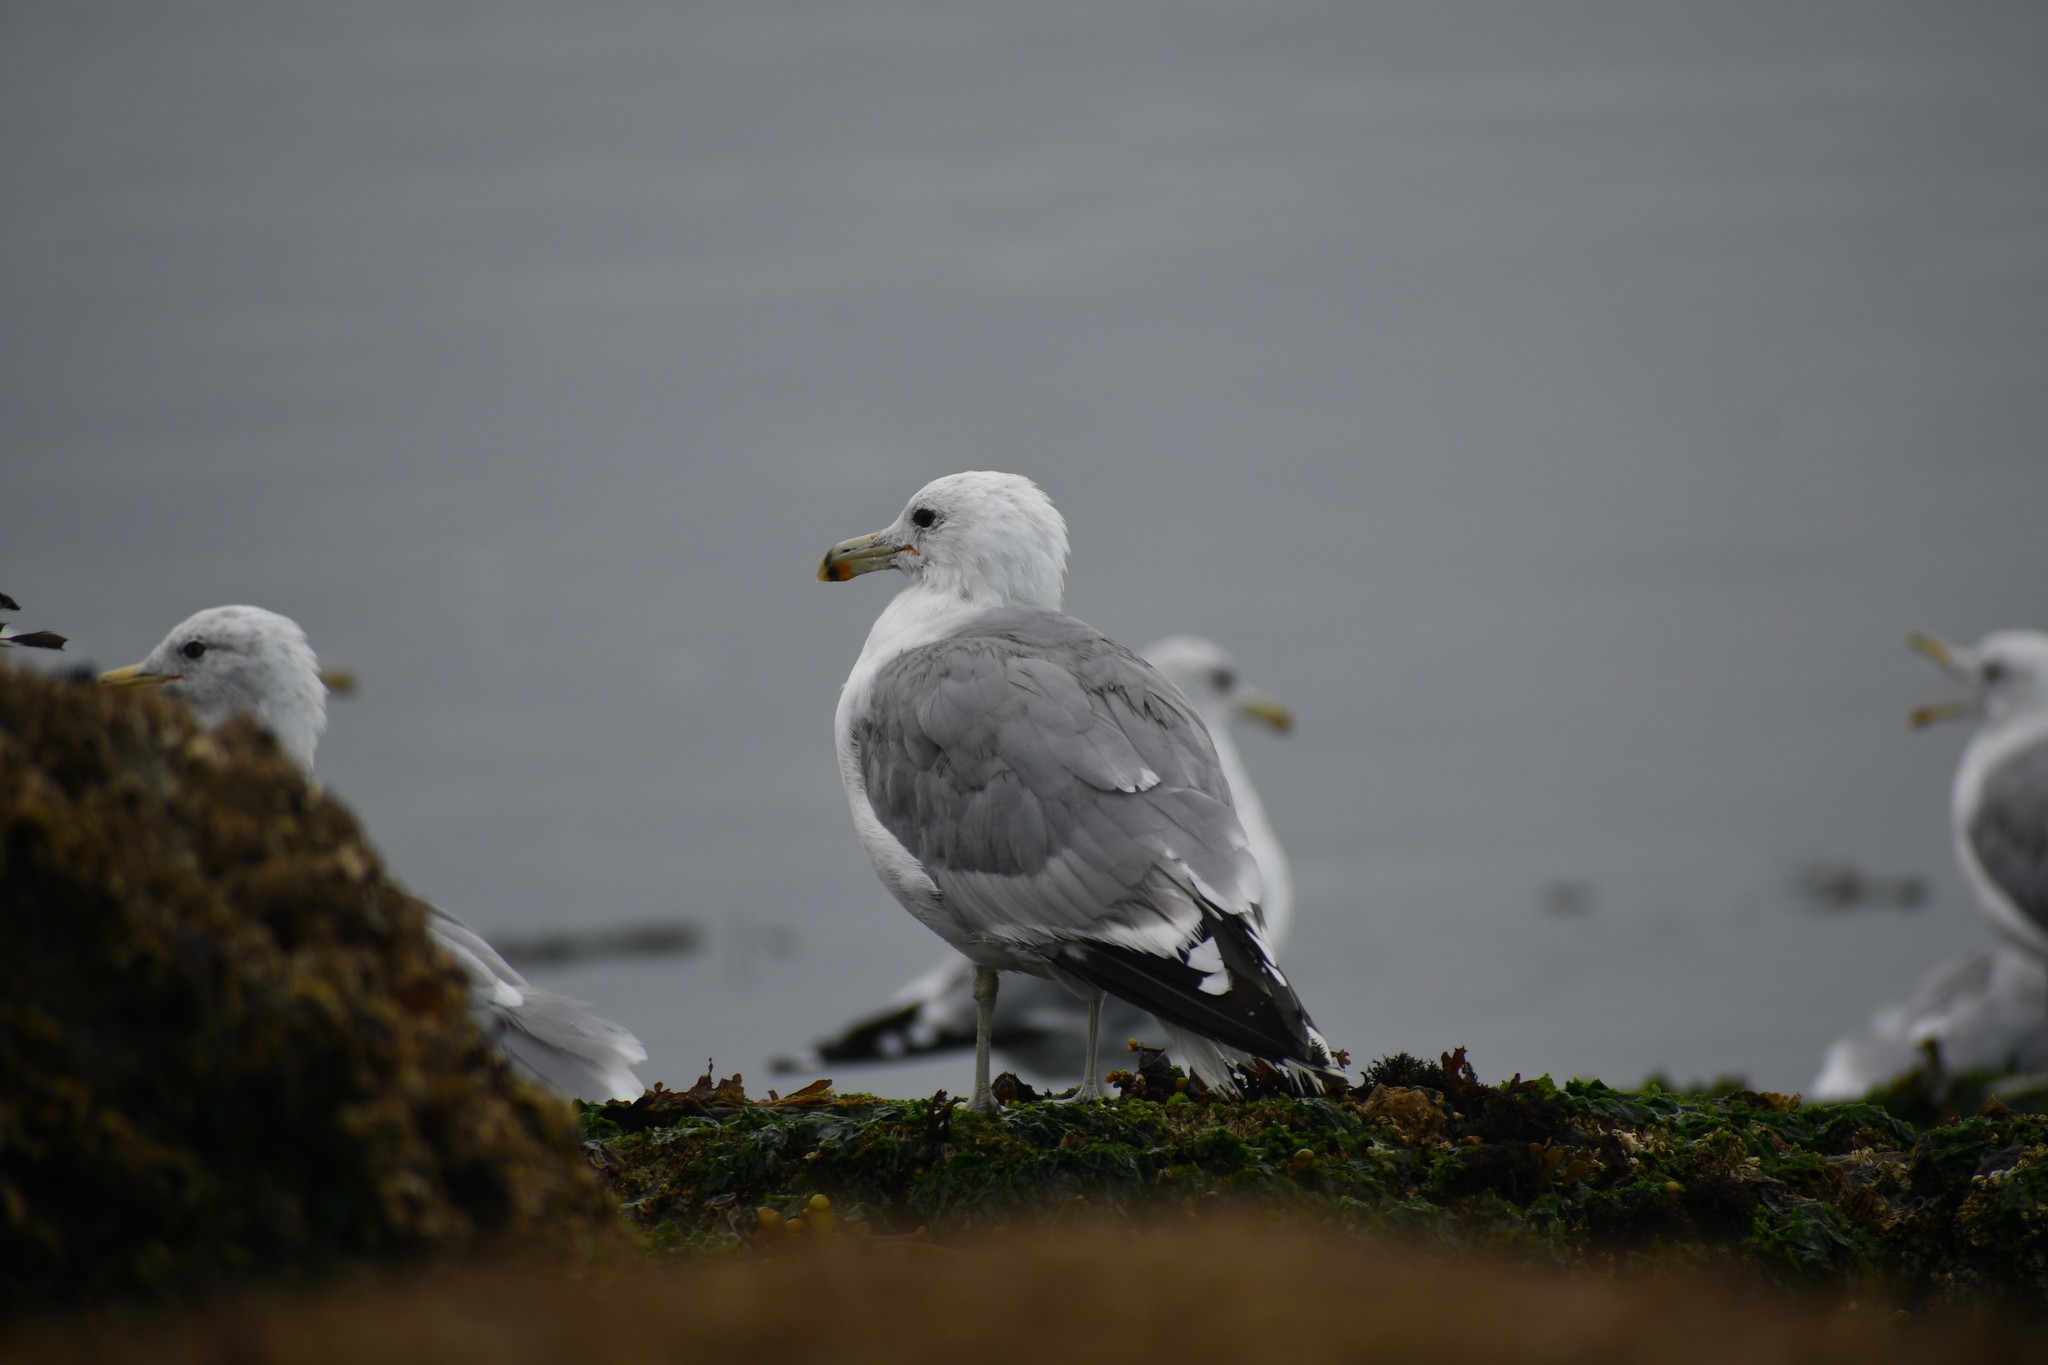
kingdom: Animalia
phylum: Chordata
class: Aves
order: Charadriiformes
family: Laridae
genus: Larus
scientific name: Larus californicus
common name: California gull
